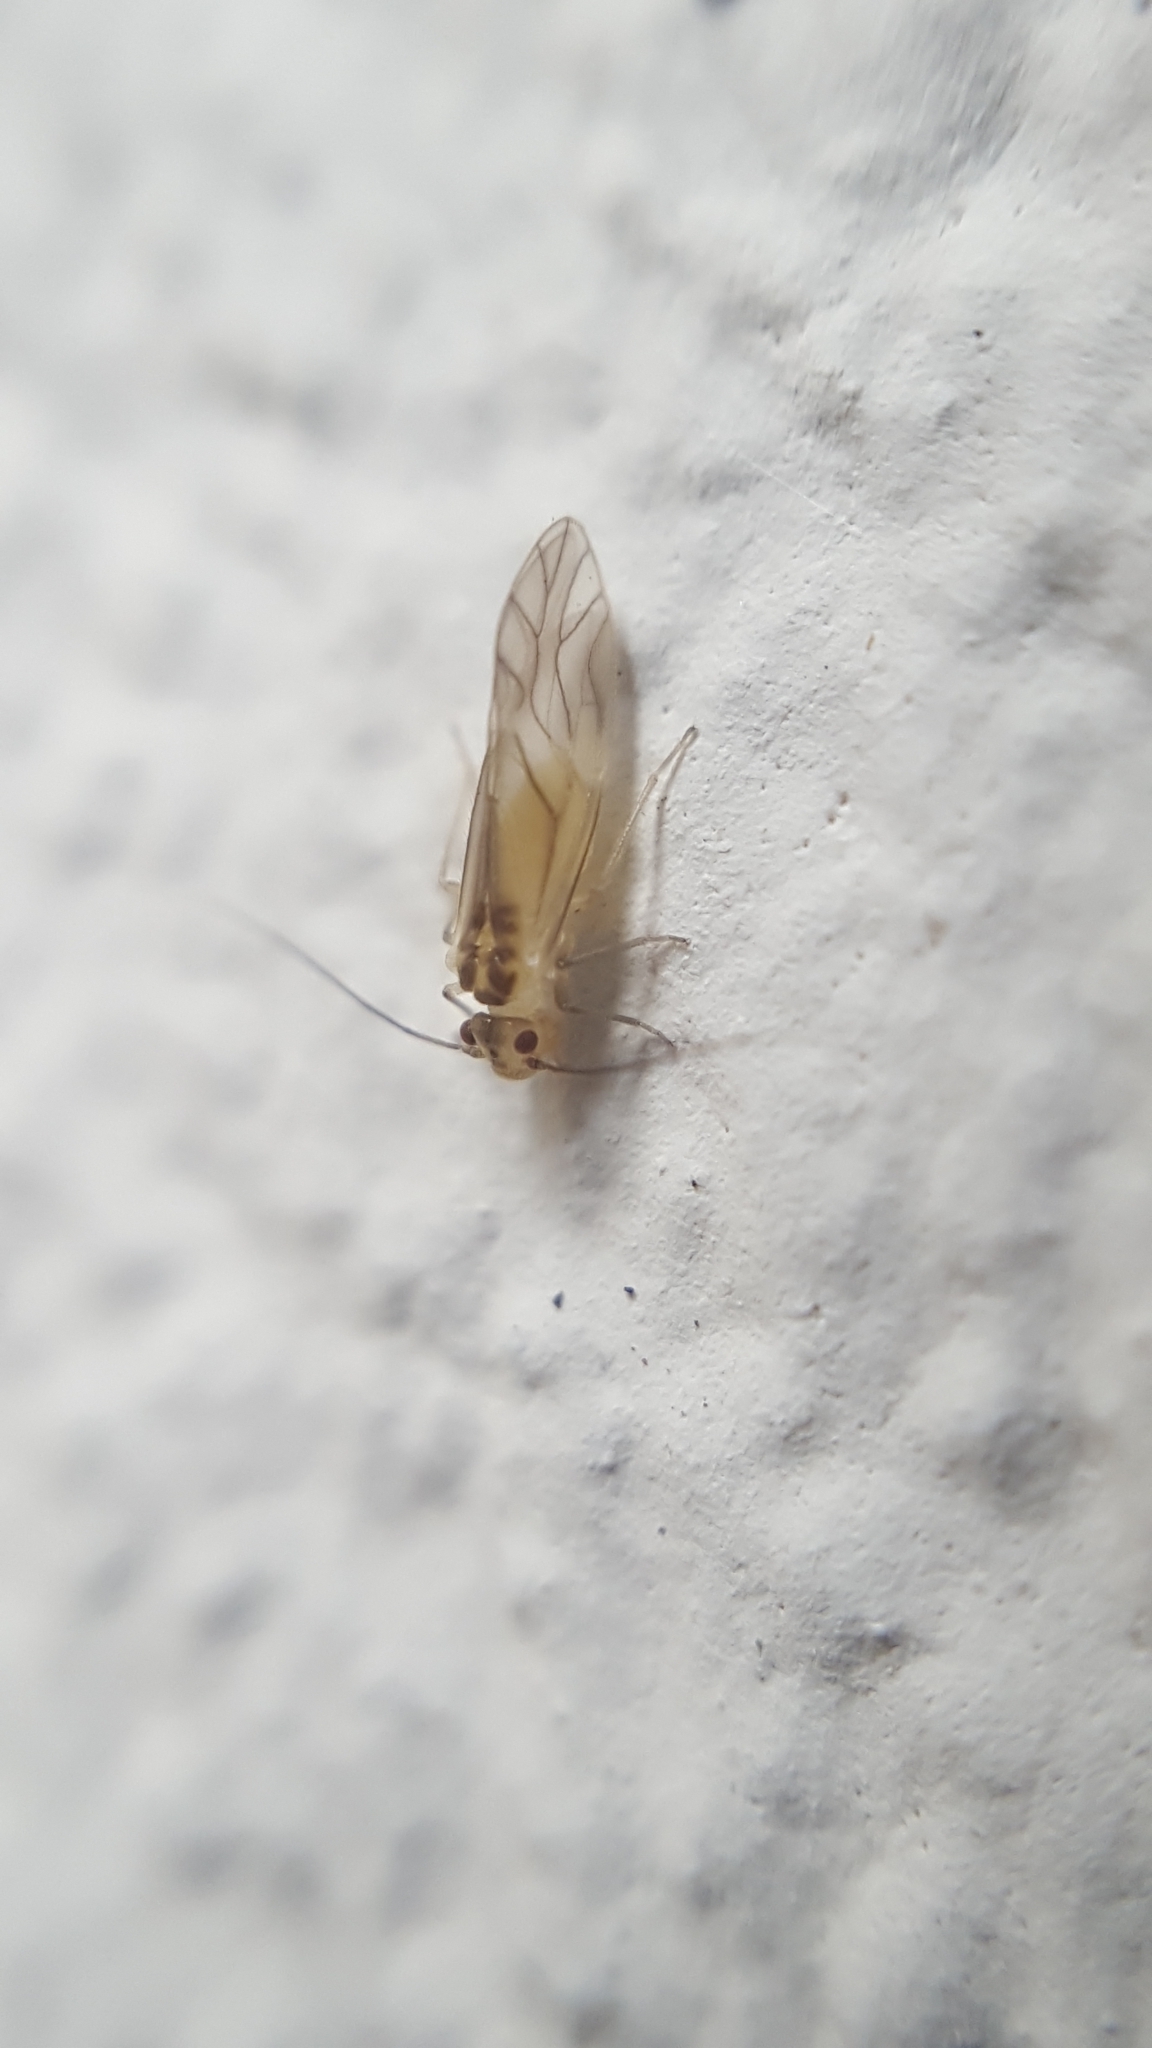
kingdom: Animalia
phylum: Arthropoda
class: Insecta
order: Psocodea
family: Caeciliusidae
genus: Valenzuela
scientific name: Valenzuela flavidus
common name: Yellow barklouse
